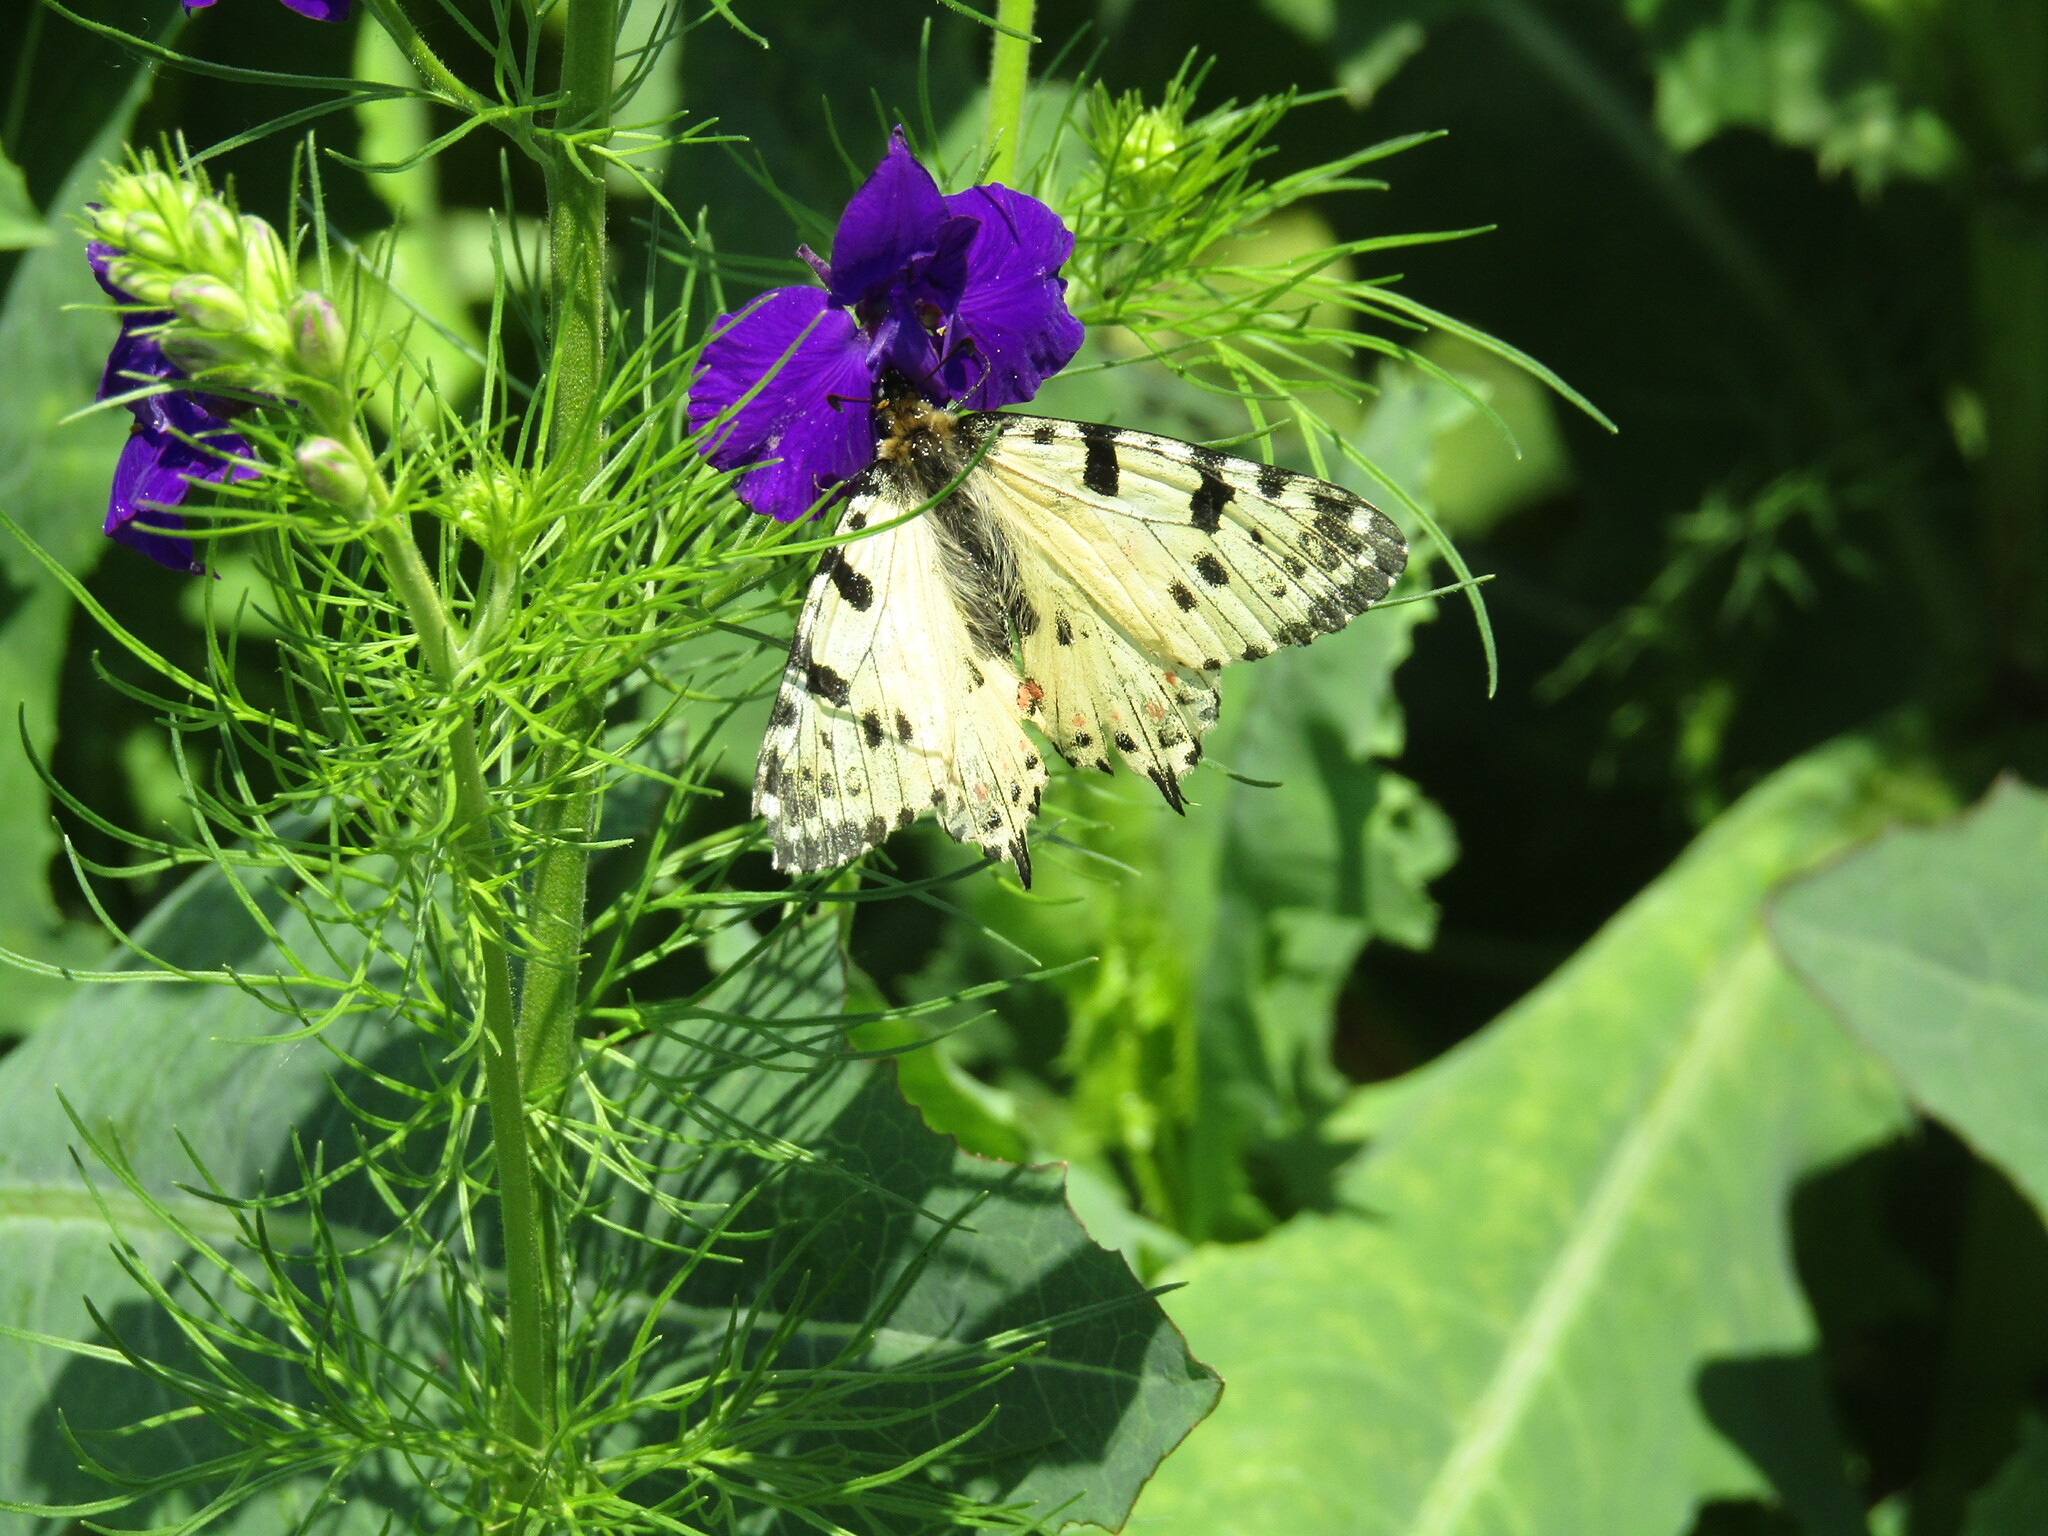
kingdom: Animalia
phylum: Arthropoda
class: Insecta
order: Lepidoptera
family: Papilionidae
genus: Zerynthia
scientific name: Zerynthia cerisy
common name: Eastern festoon
